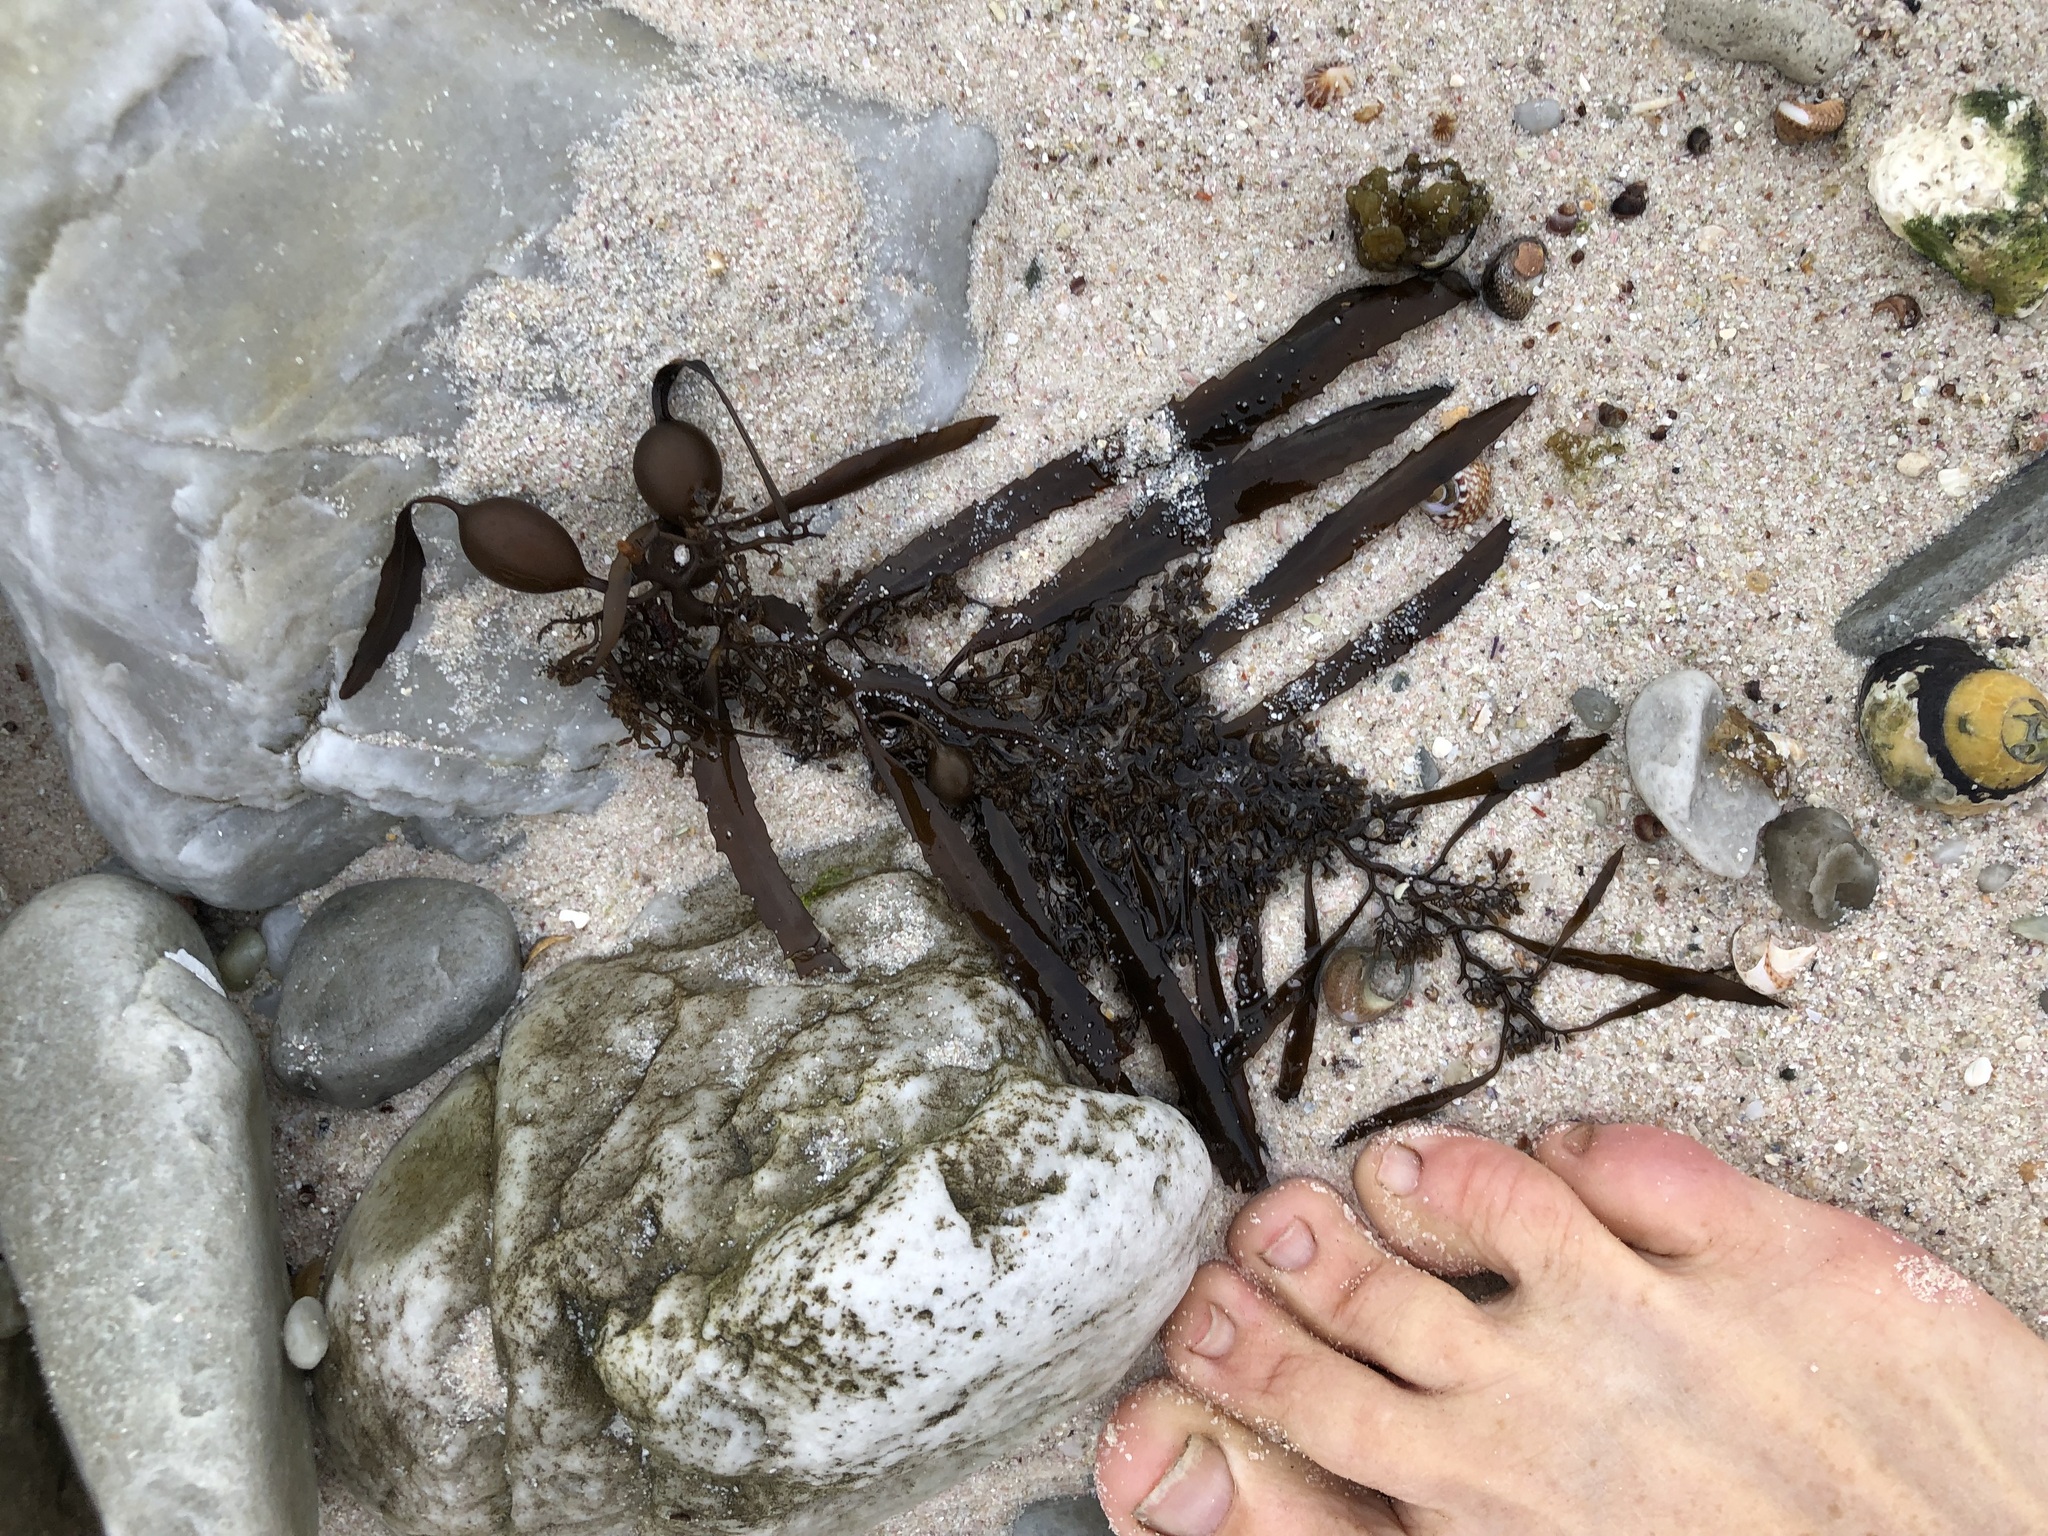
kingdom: Chromista
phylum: Ochrophyta
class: Phaeophyceae
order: Fucales
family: Sargassaceae
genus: Anthophycus
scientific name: Anthophycus
